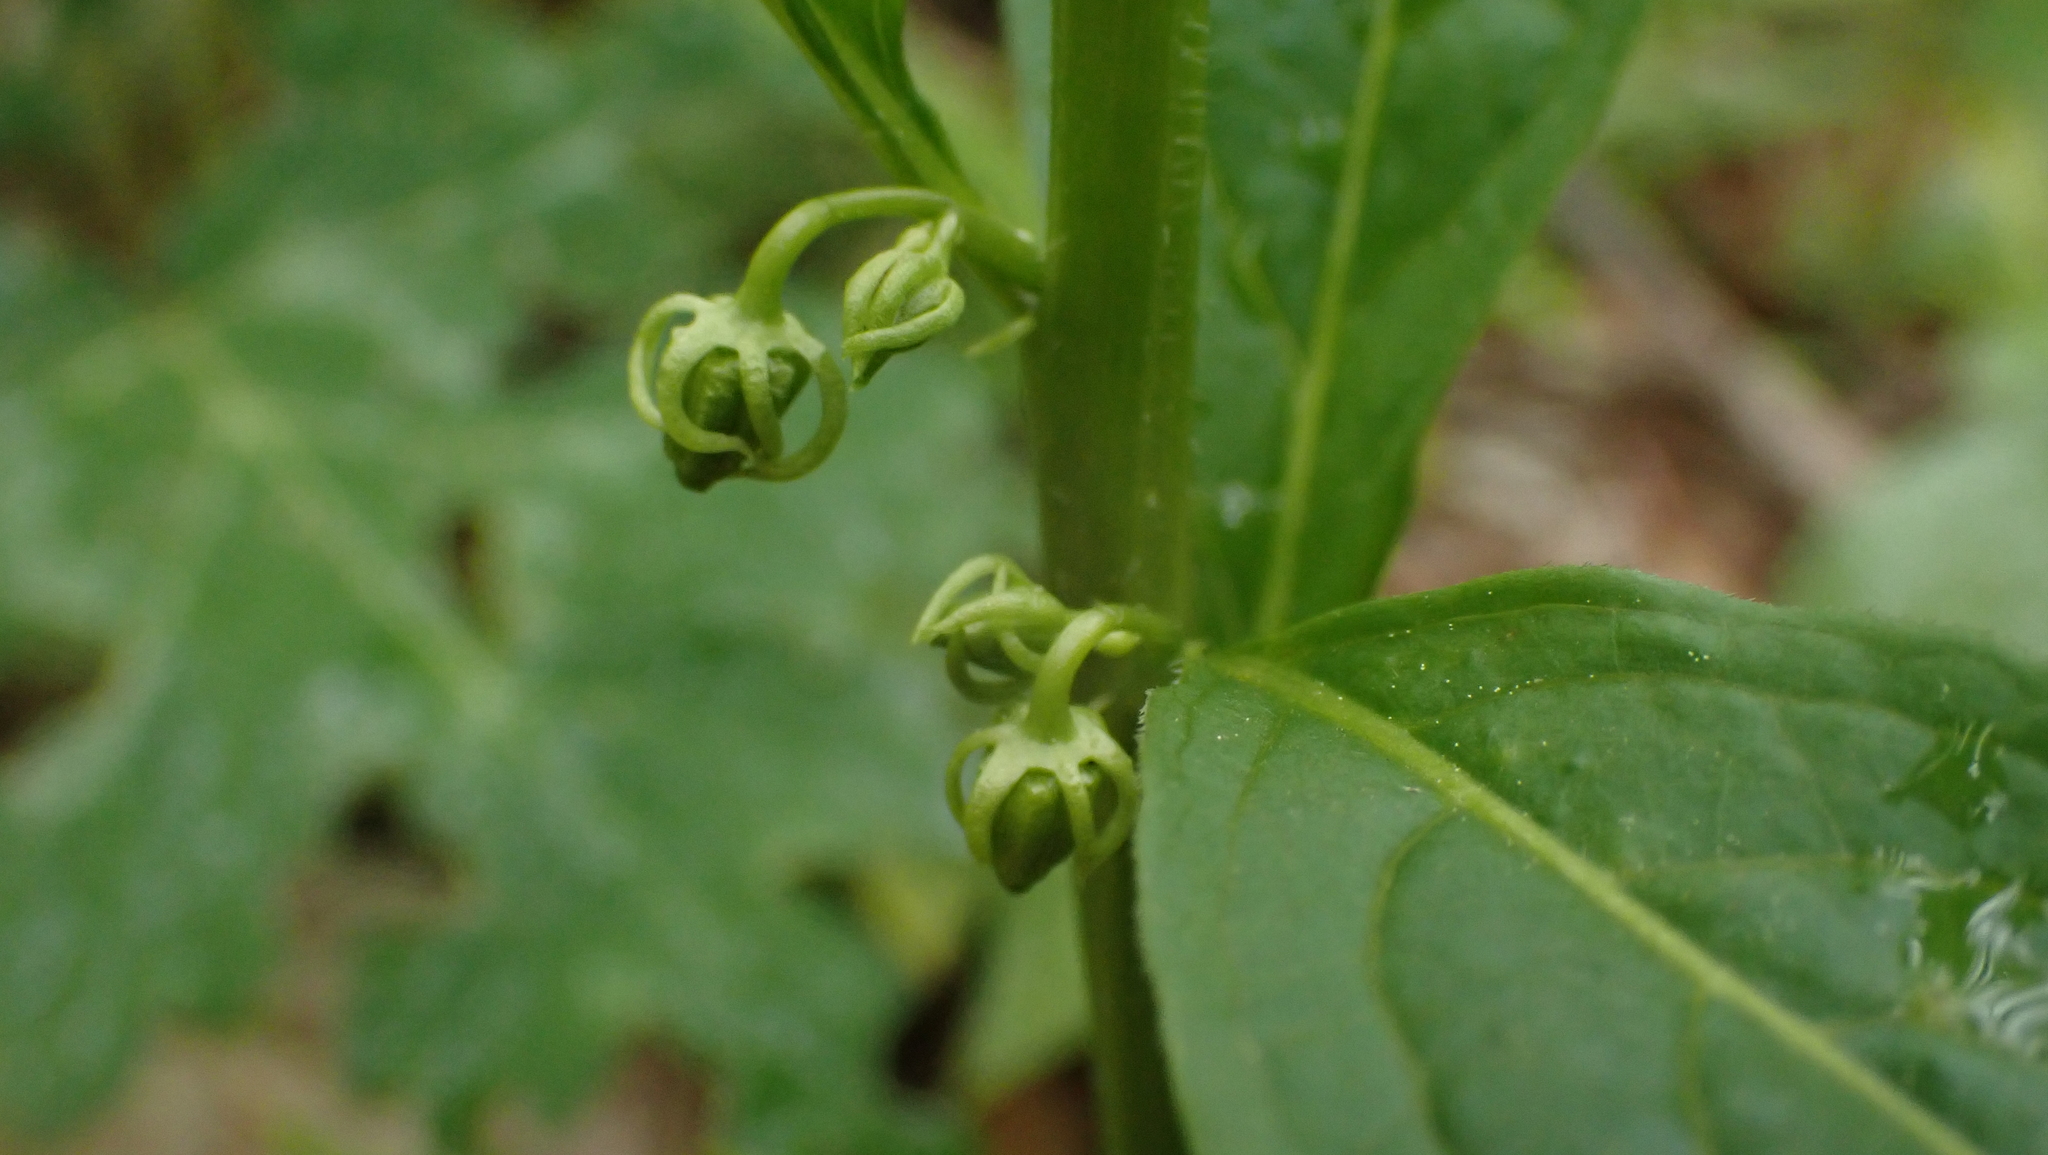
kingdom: Plantae
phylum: Tracheophyta
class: Magnoliopsida
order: Malpighiales
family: Violaceae
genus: Cubelium
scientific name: Cubelium concolor
